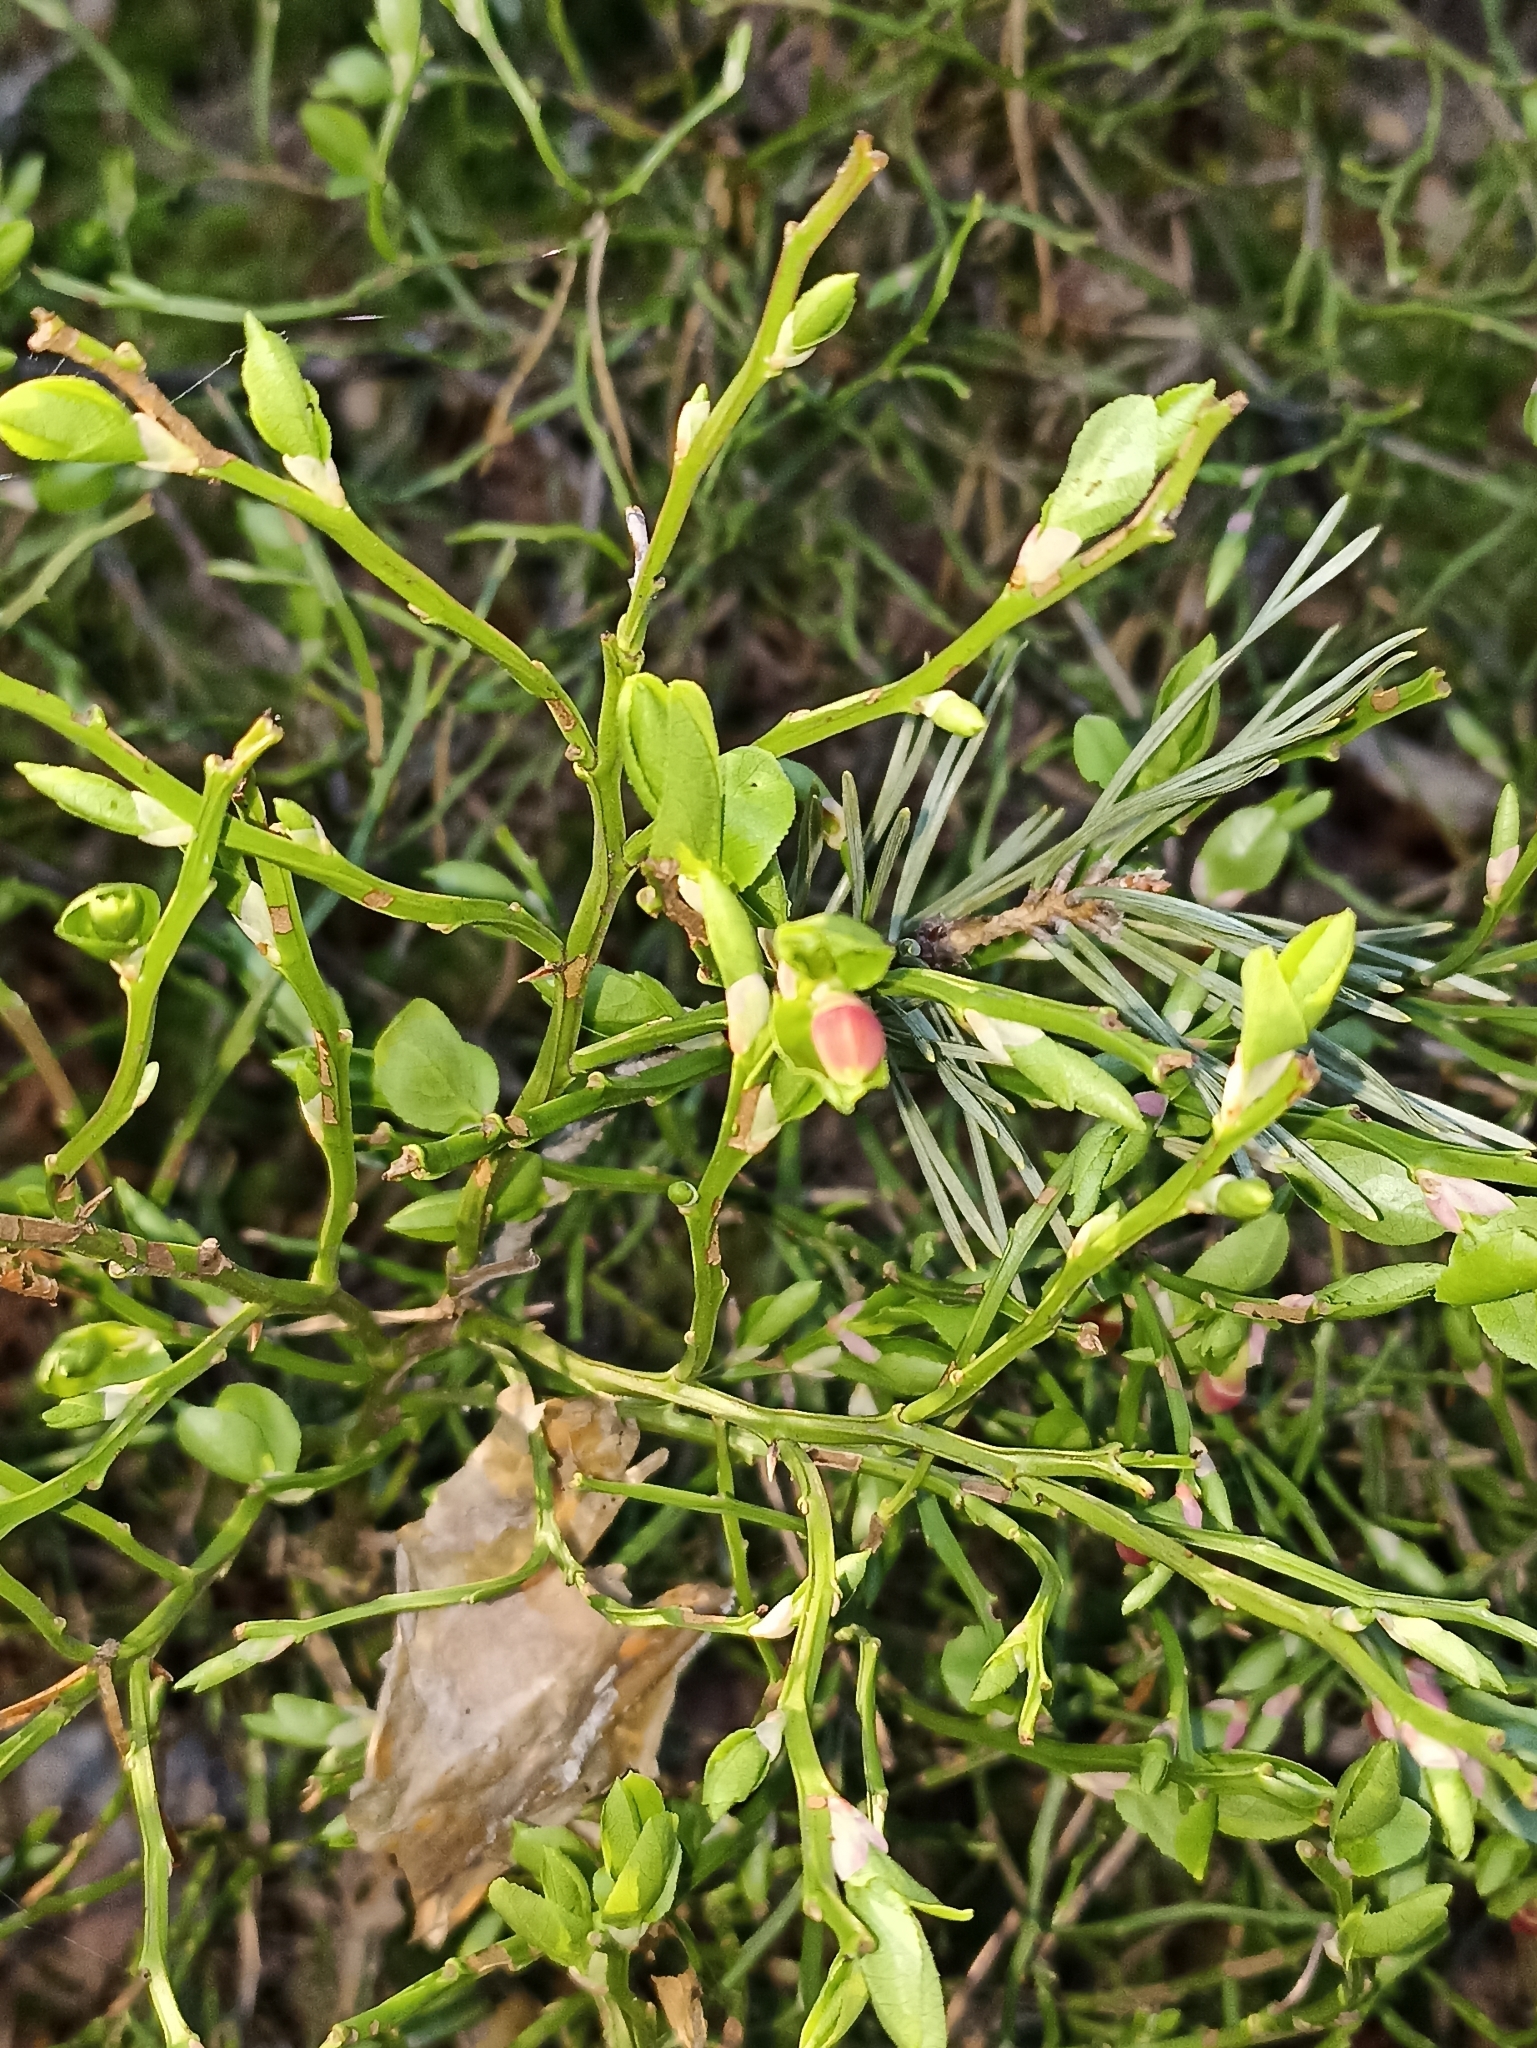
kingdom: Plantae
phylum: Tracheophyta
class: Magnoliopsida
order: Ericales
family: Ericaceae
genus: Vaccinium
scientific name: Vaccinium myrtillus
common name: Bilberry
